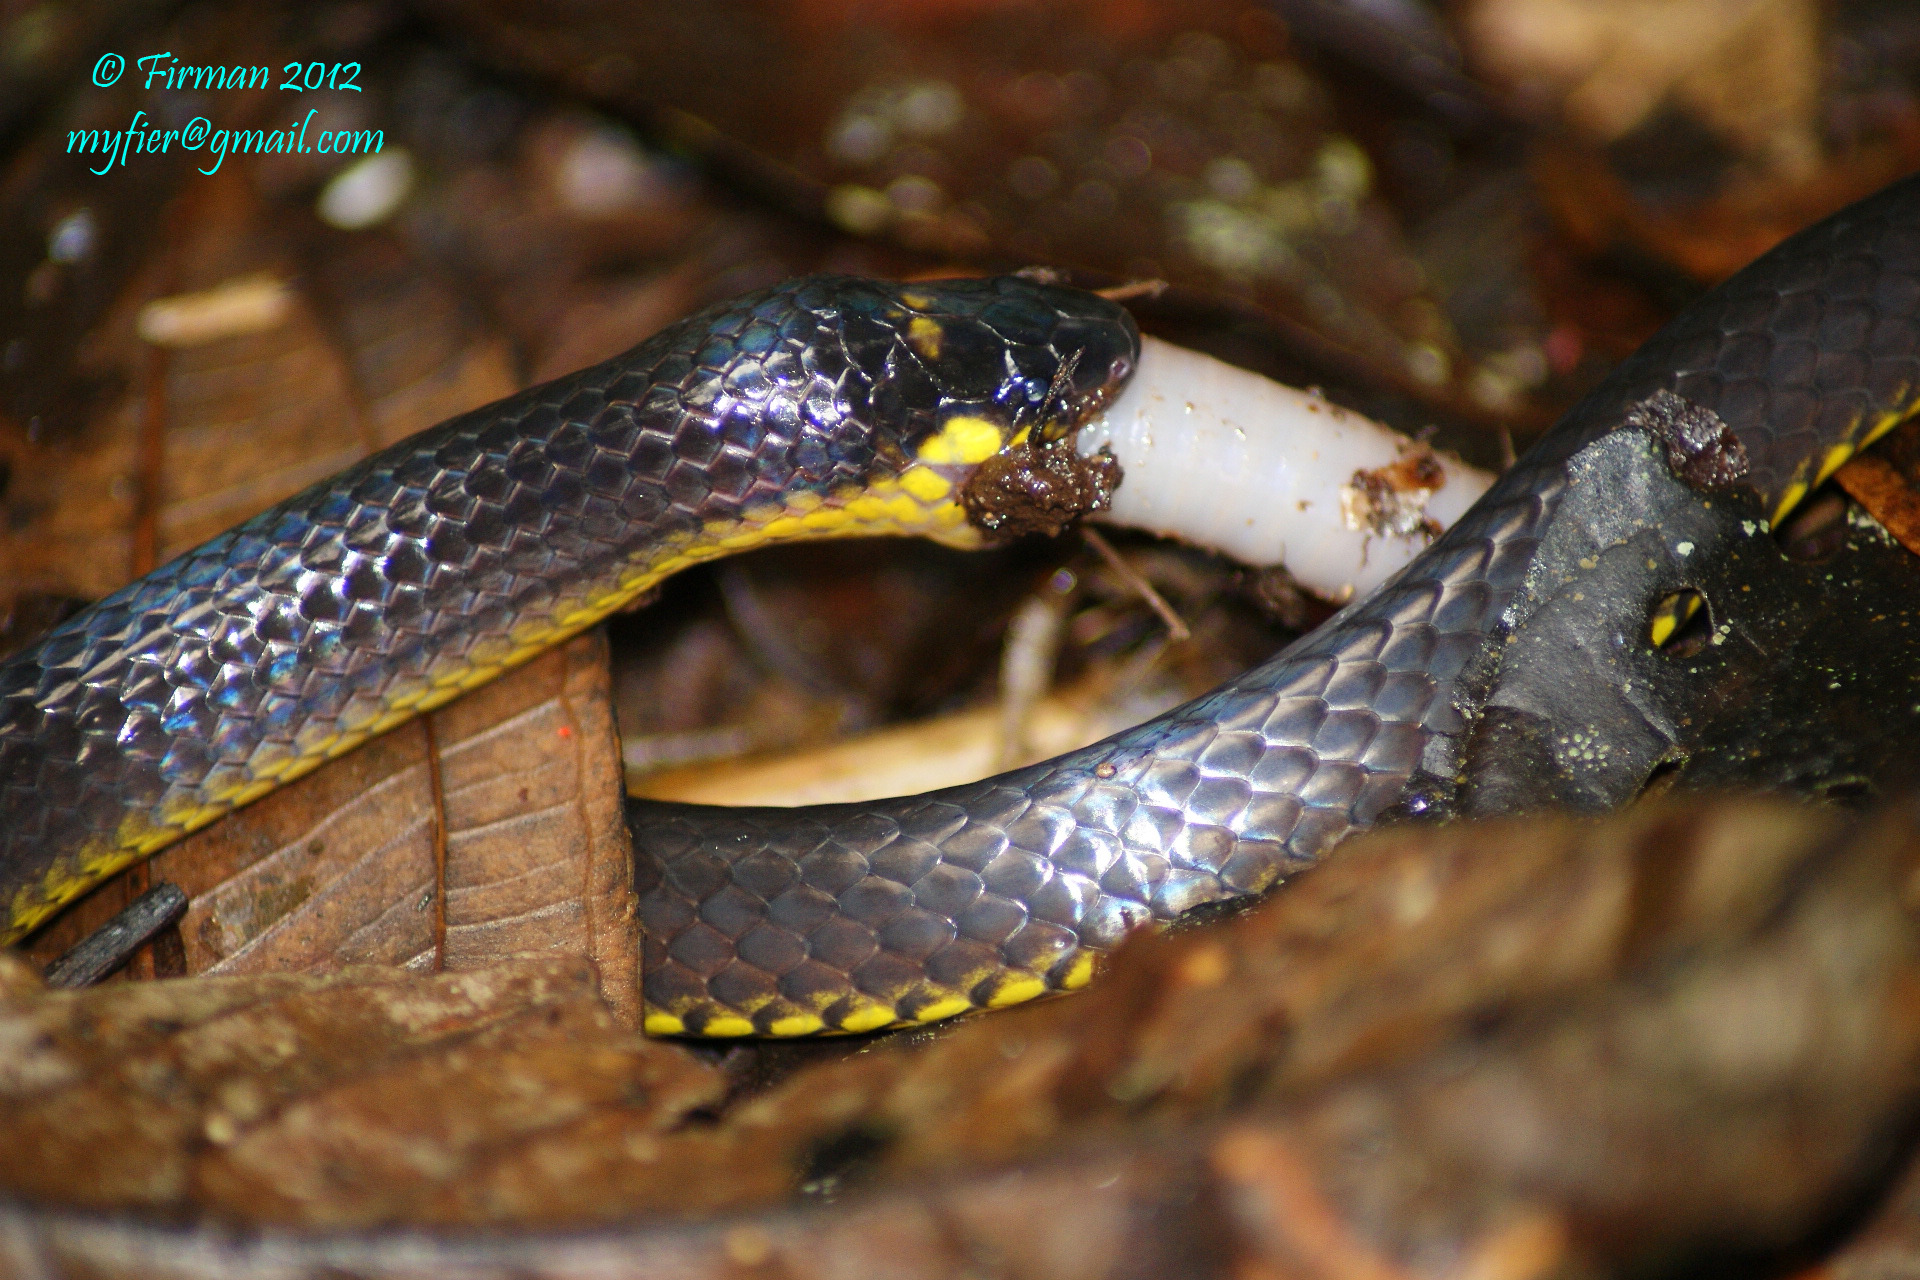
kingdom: Animalia
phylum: Chordata
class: Squamata
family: Colubridae
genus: Calamaria
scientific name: Calamaria schlegeli
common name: Red-headed reed snake
